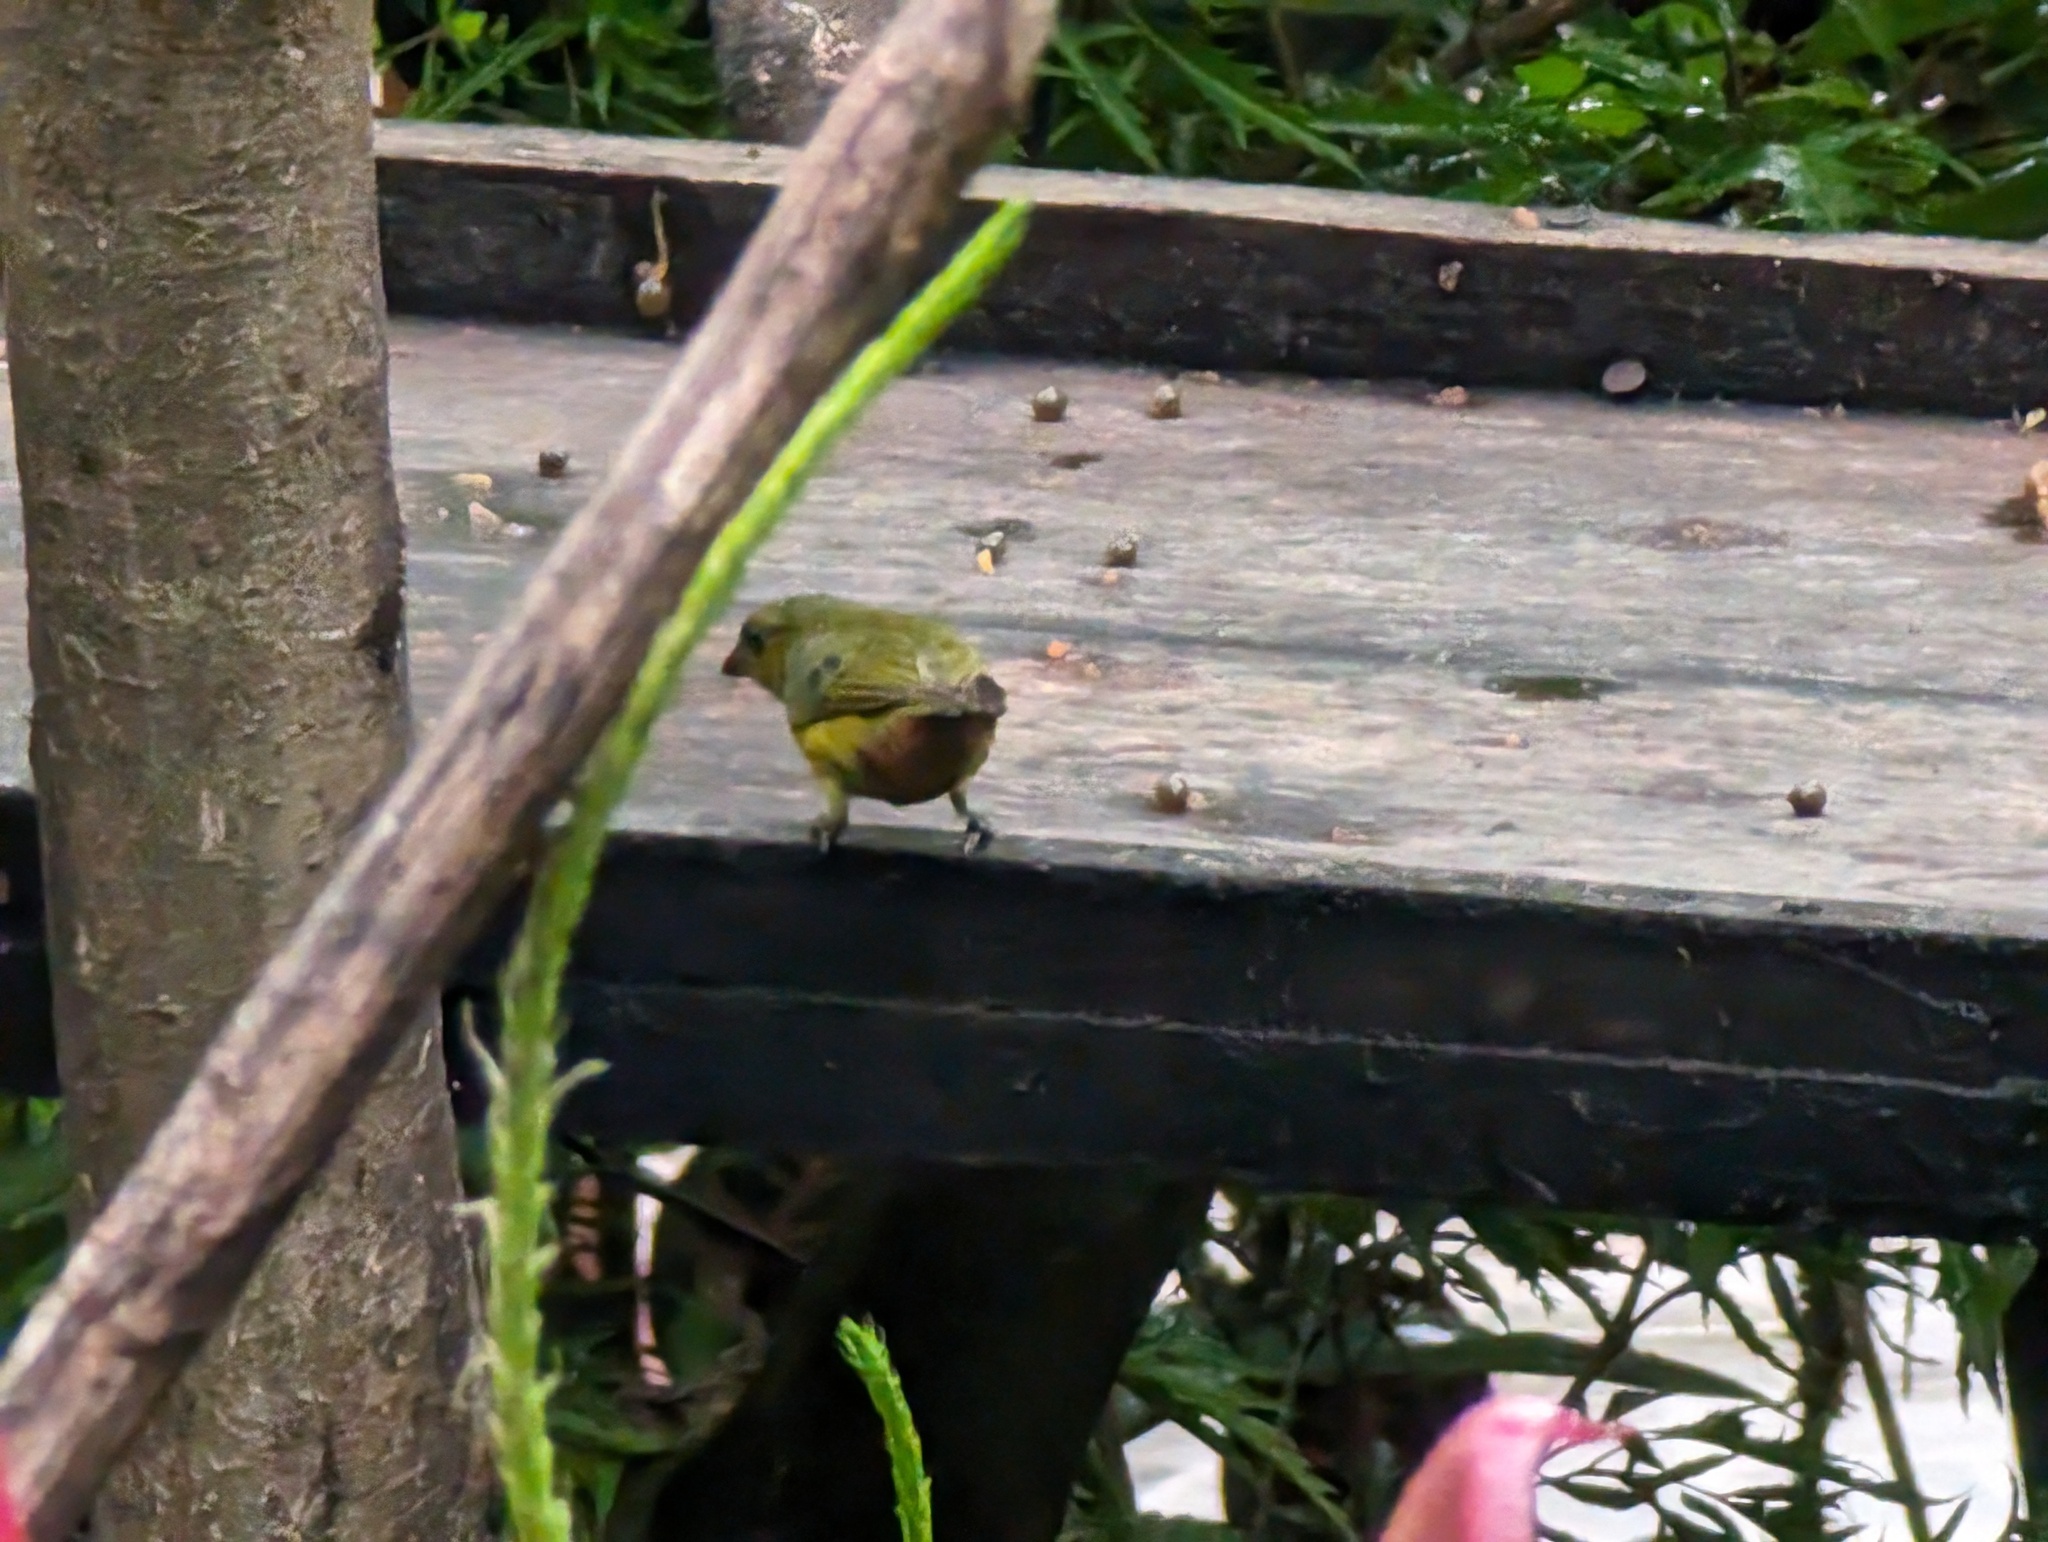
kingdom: Animalia
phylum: Chordata
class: Aves
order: Passeriformes
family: Fringillidae
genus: Euphonia
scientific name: Euphonia gouldi
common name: Olive-backed euphonia
